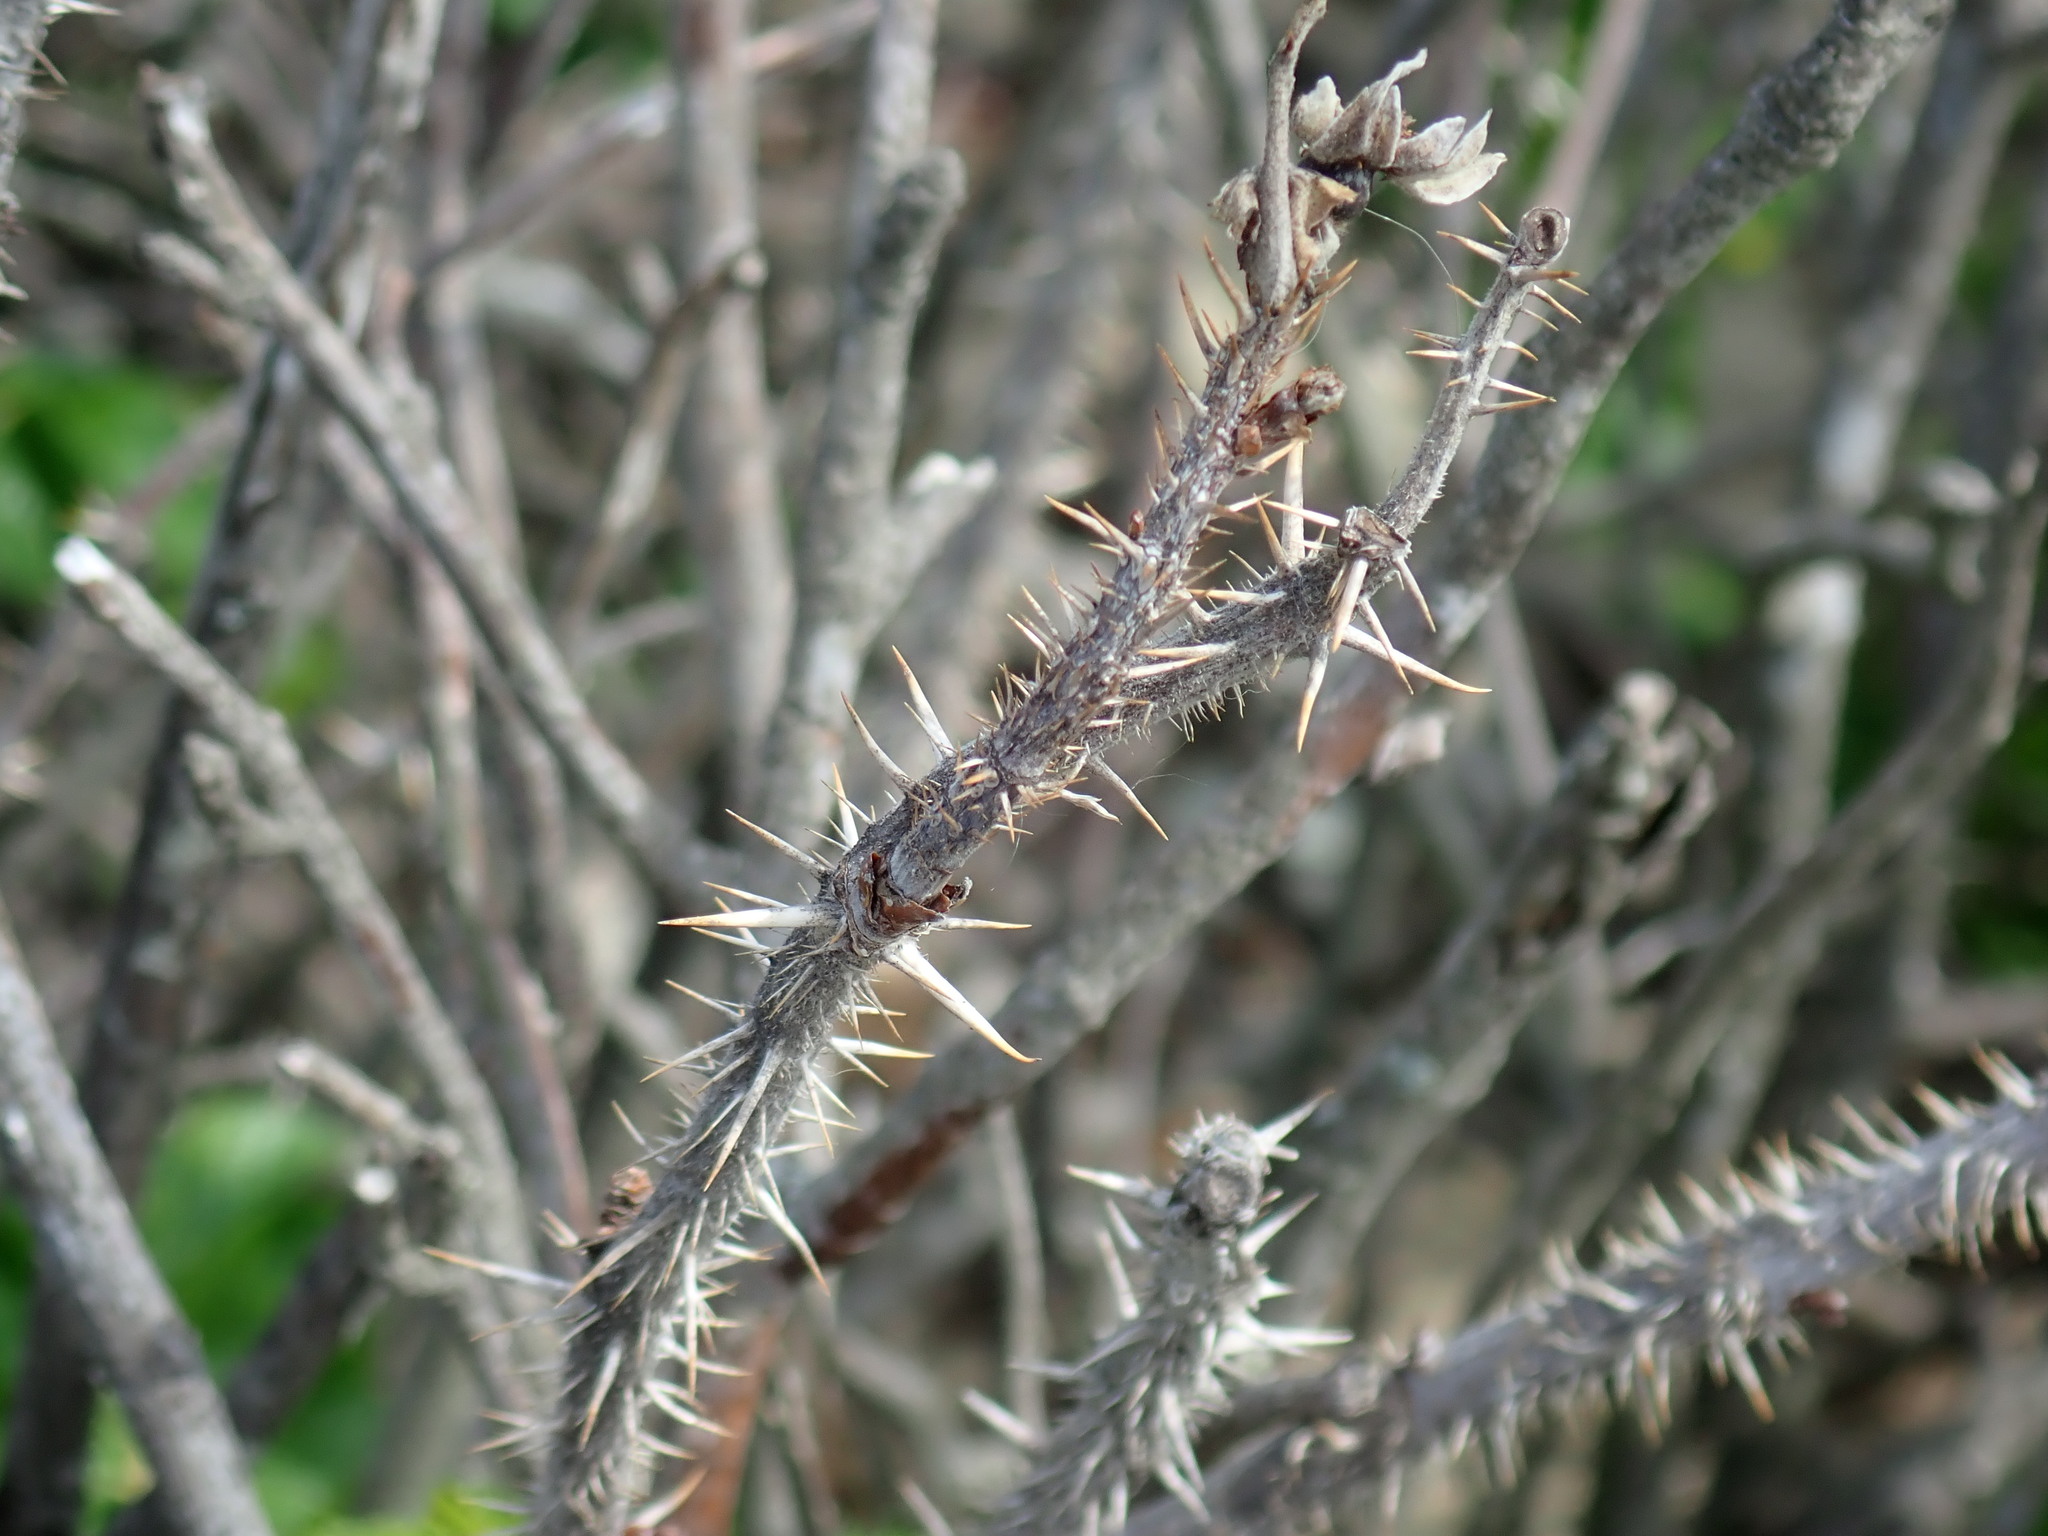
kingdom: Plantae
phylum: Tracheophyta
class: Magnoliopsida
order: Rosales
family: Rosaceae
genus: Rosa
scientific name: Rosa rugosa
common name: Japanese rose
